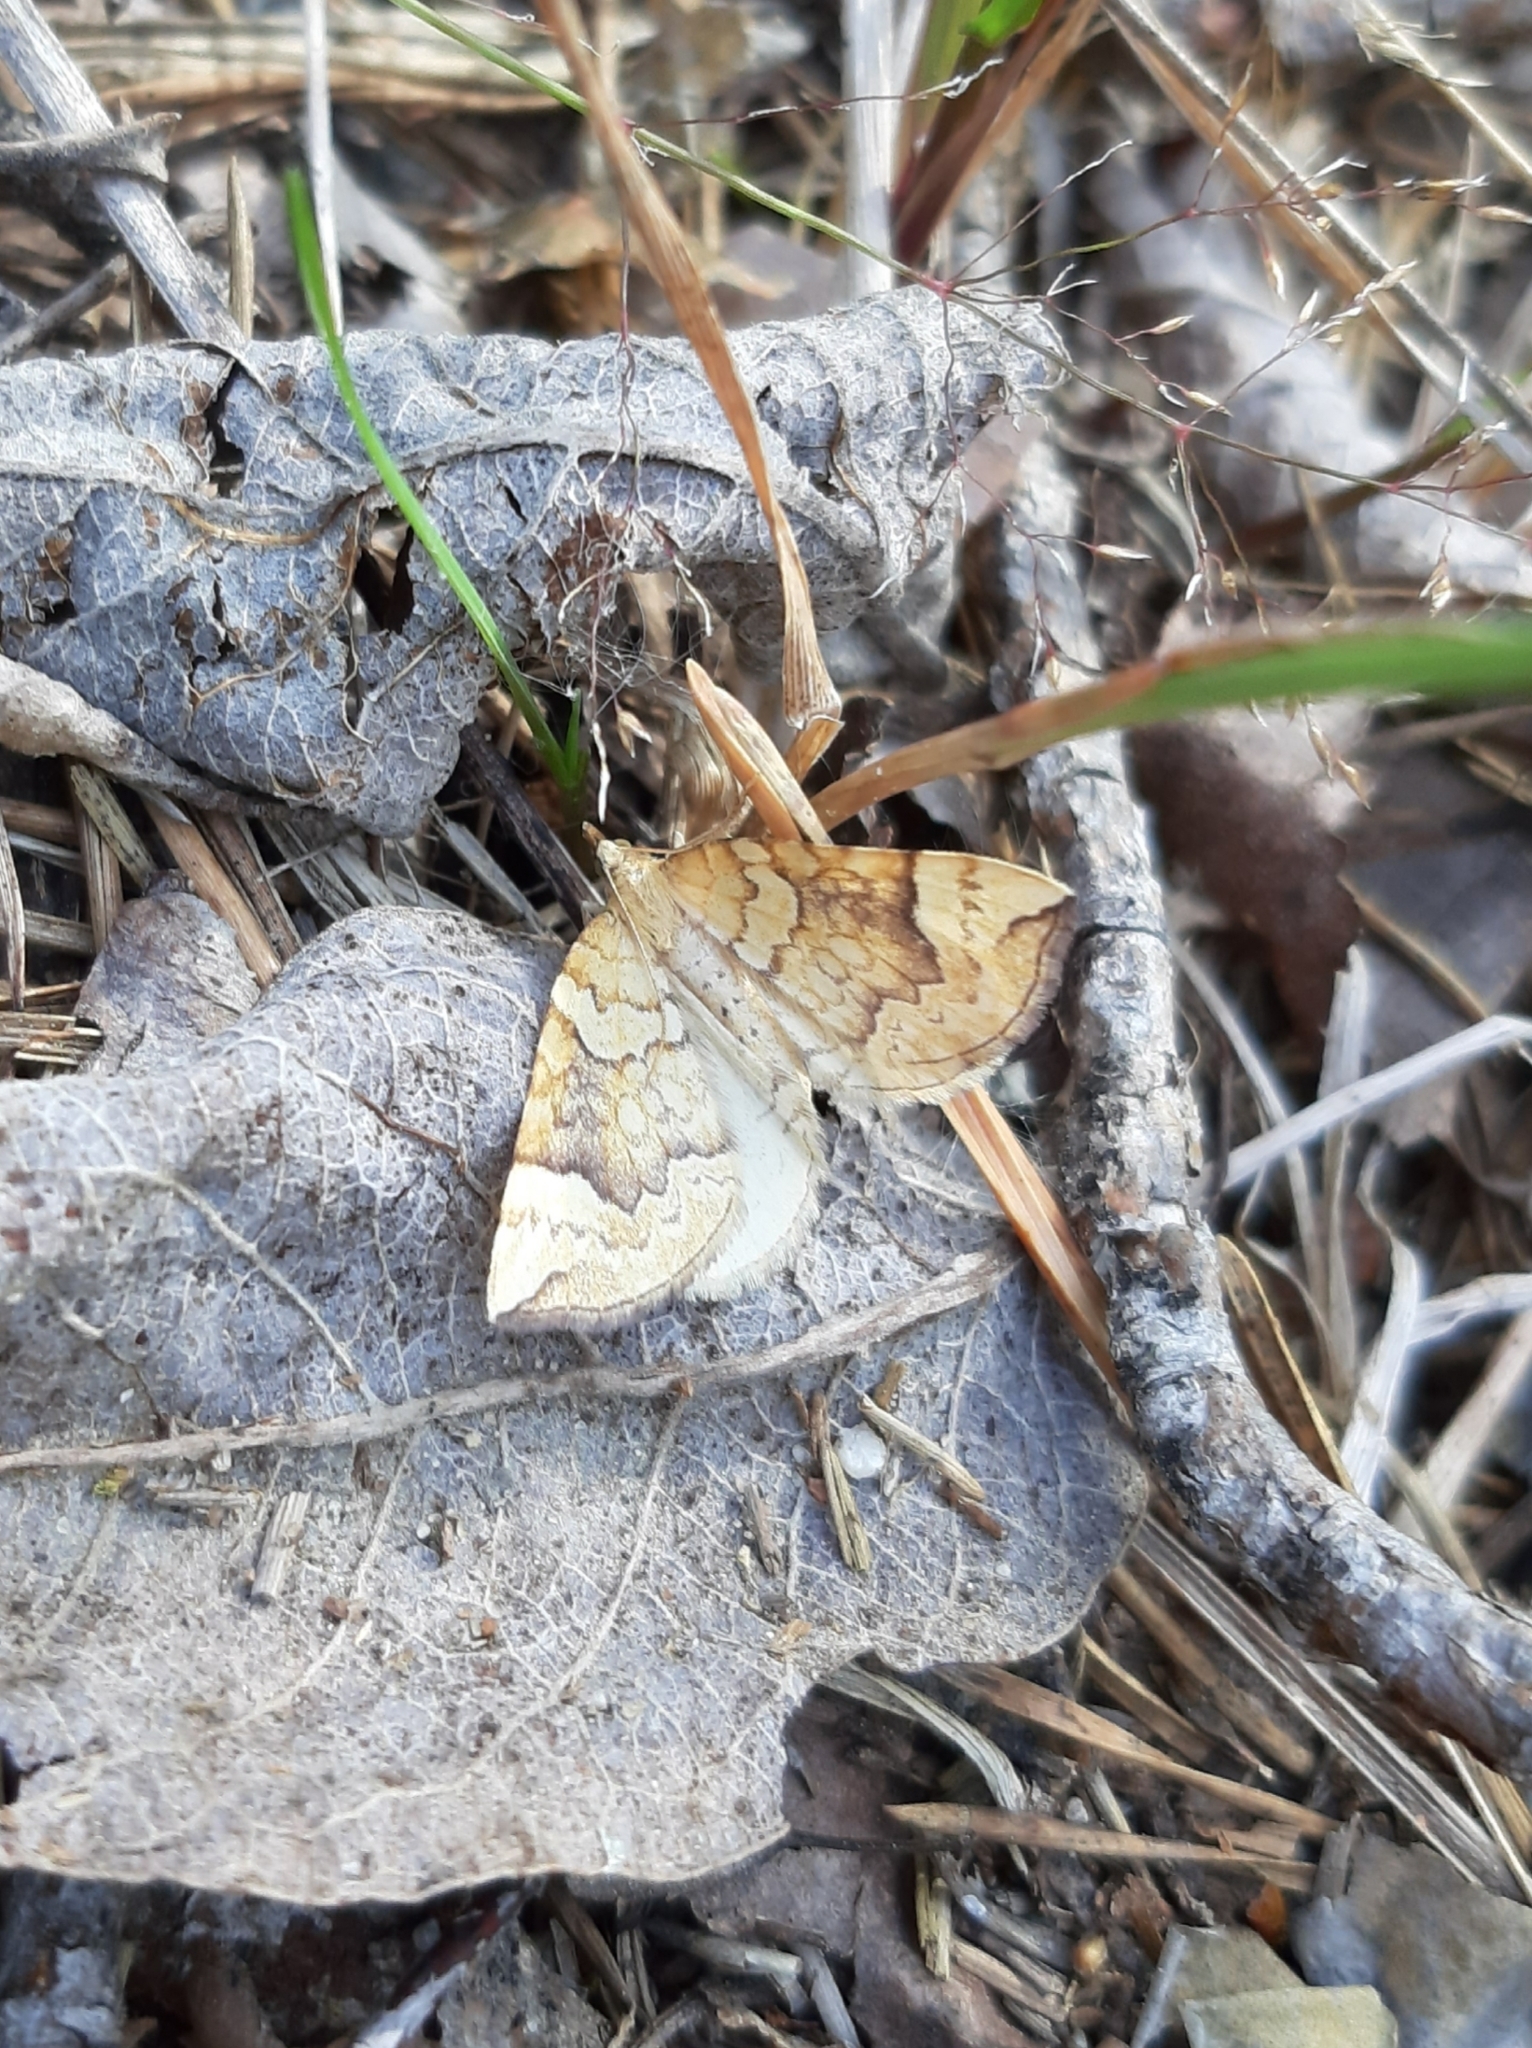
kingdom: Animalia
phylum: Arthropoda
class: Insecta
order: Lepidoptera
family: Geometridae
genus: Eulithis
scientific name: Eulithis populata
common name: Northern spinach
